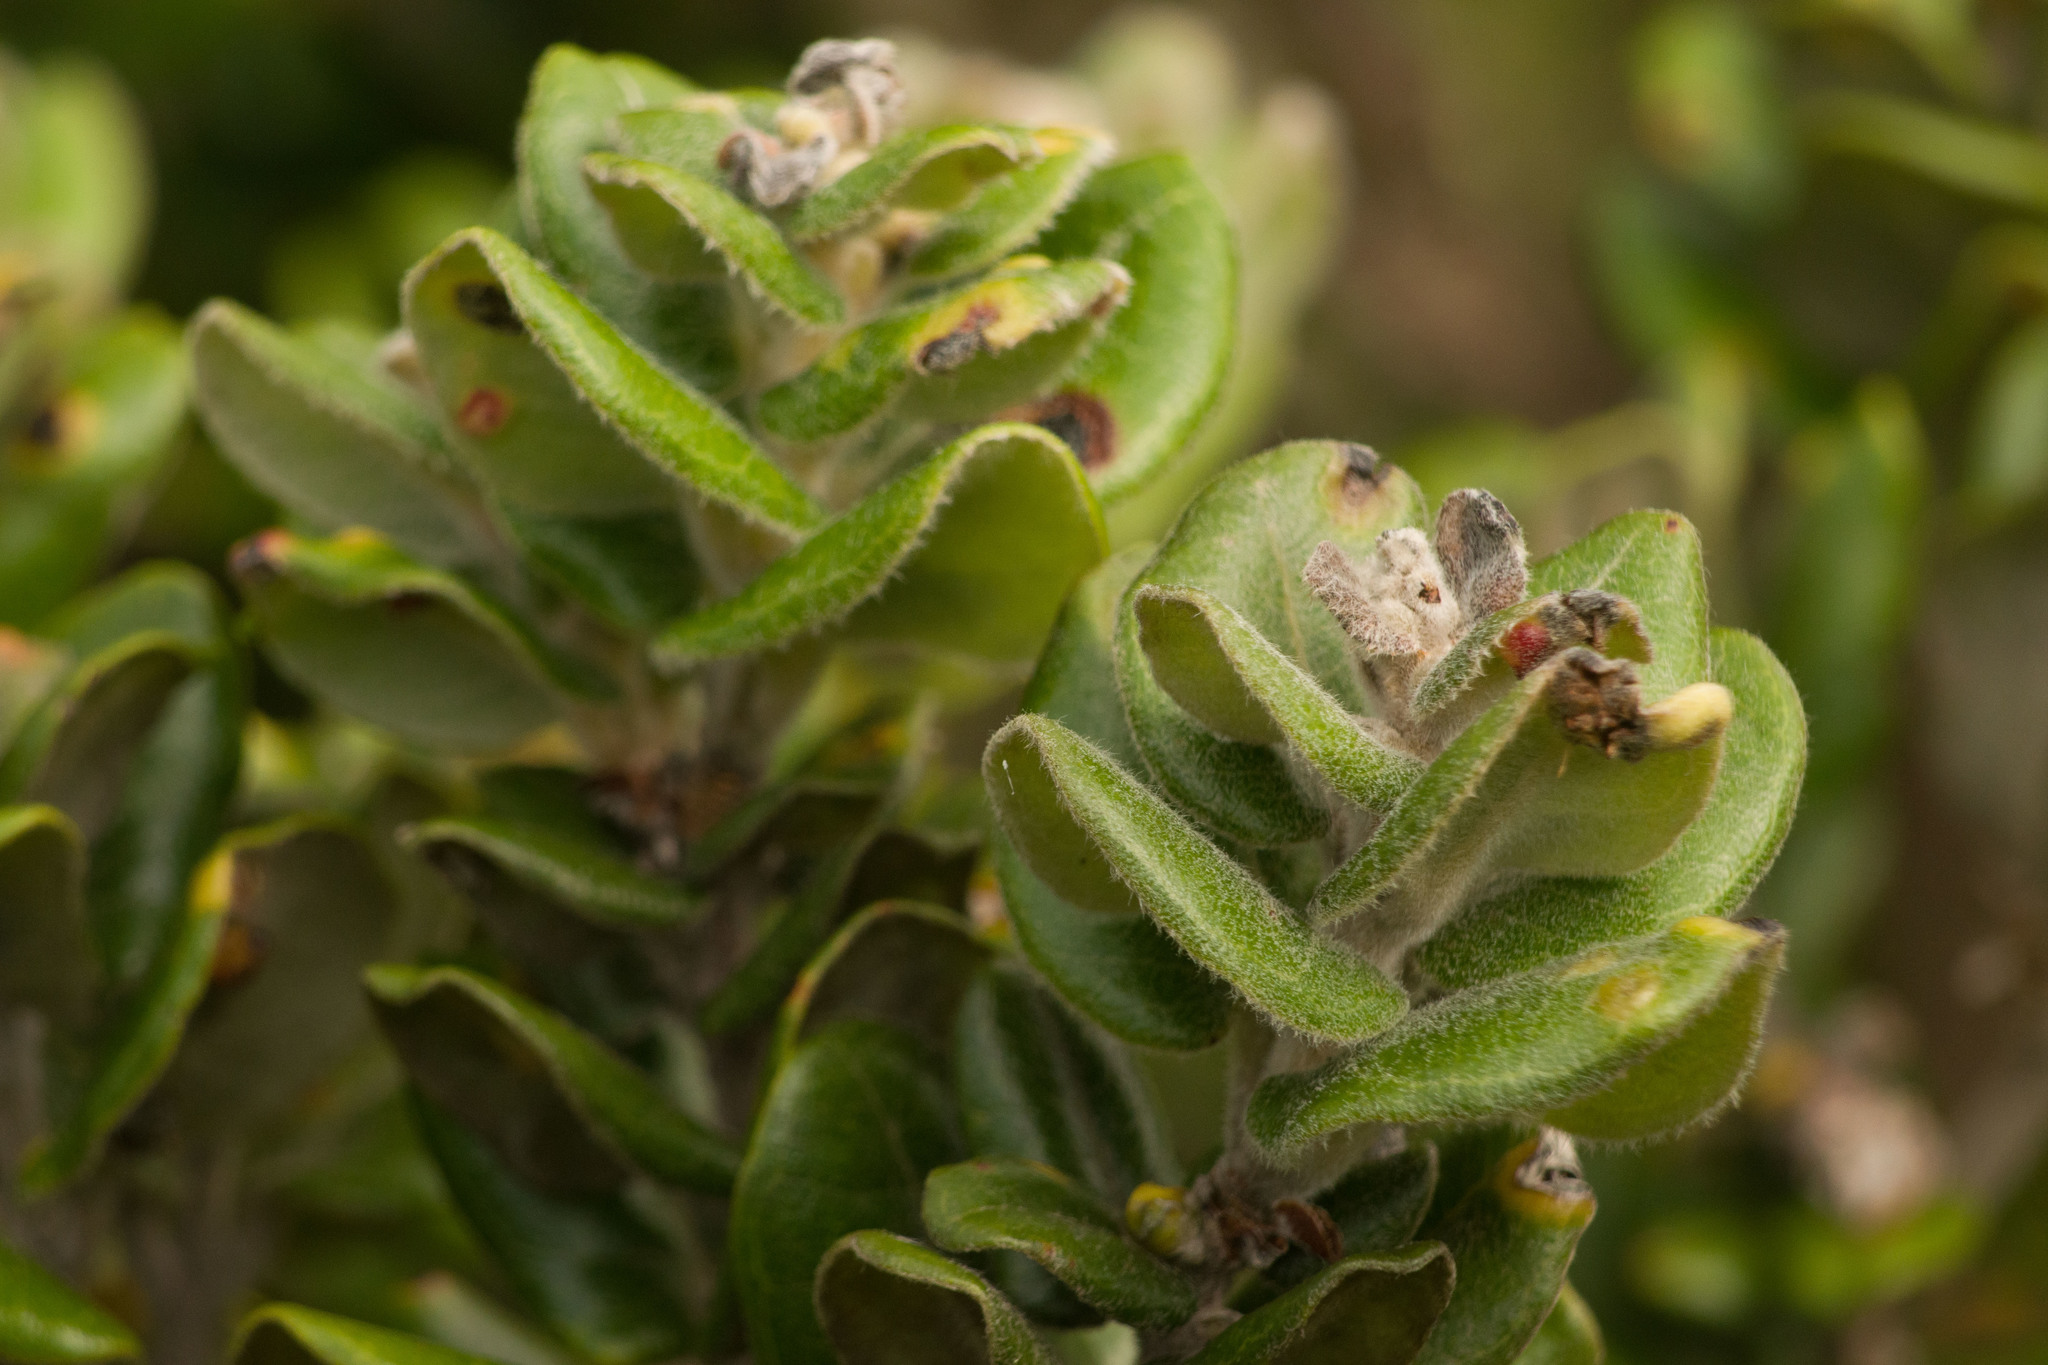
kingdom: Plantae
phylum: Tracheophyta
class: Magnoliopsida
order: Myrtales
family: Myrtaceae
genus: Metrosideros
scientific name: Metrosideros polymorpha
